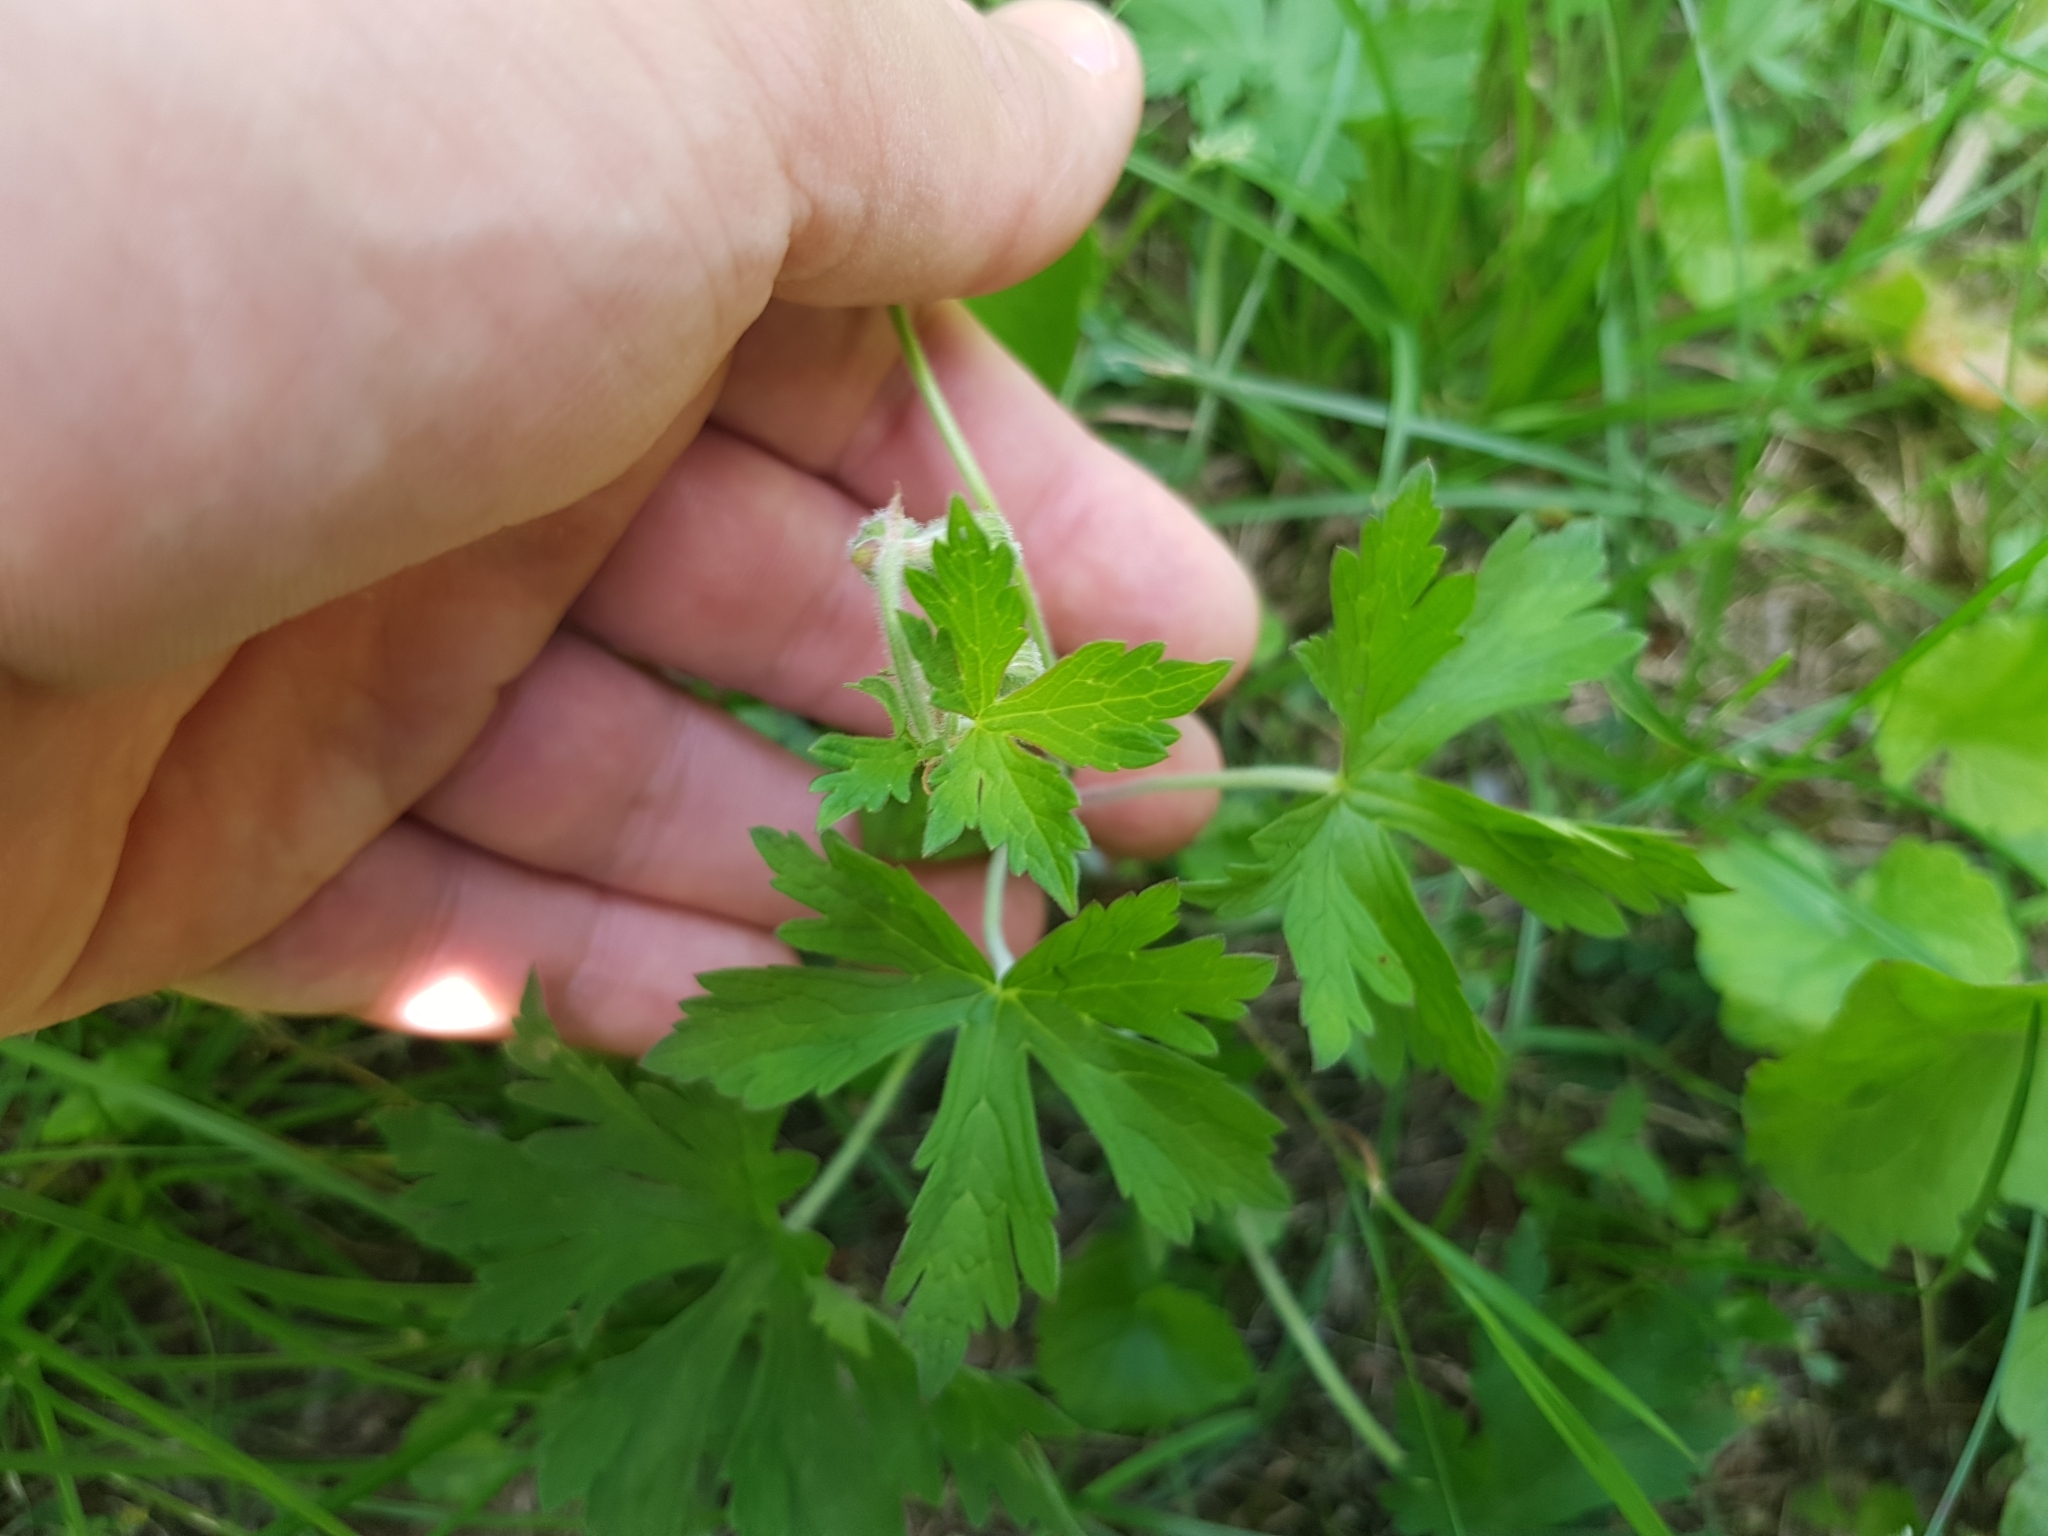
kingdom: Plantae
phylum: Tracheophyta
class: Magnoliopsida
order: Geraniales
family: Geraniaceae
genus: Geranium
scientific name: Geranium pratense
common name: Meadow crane's-bill
